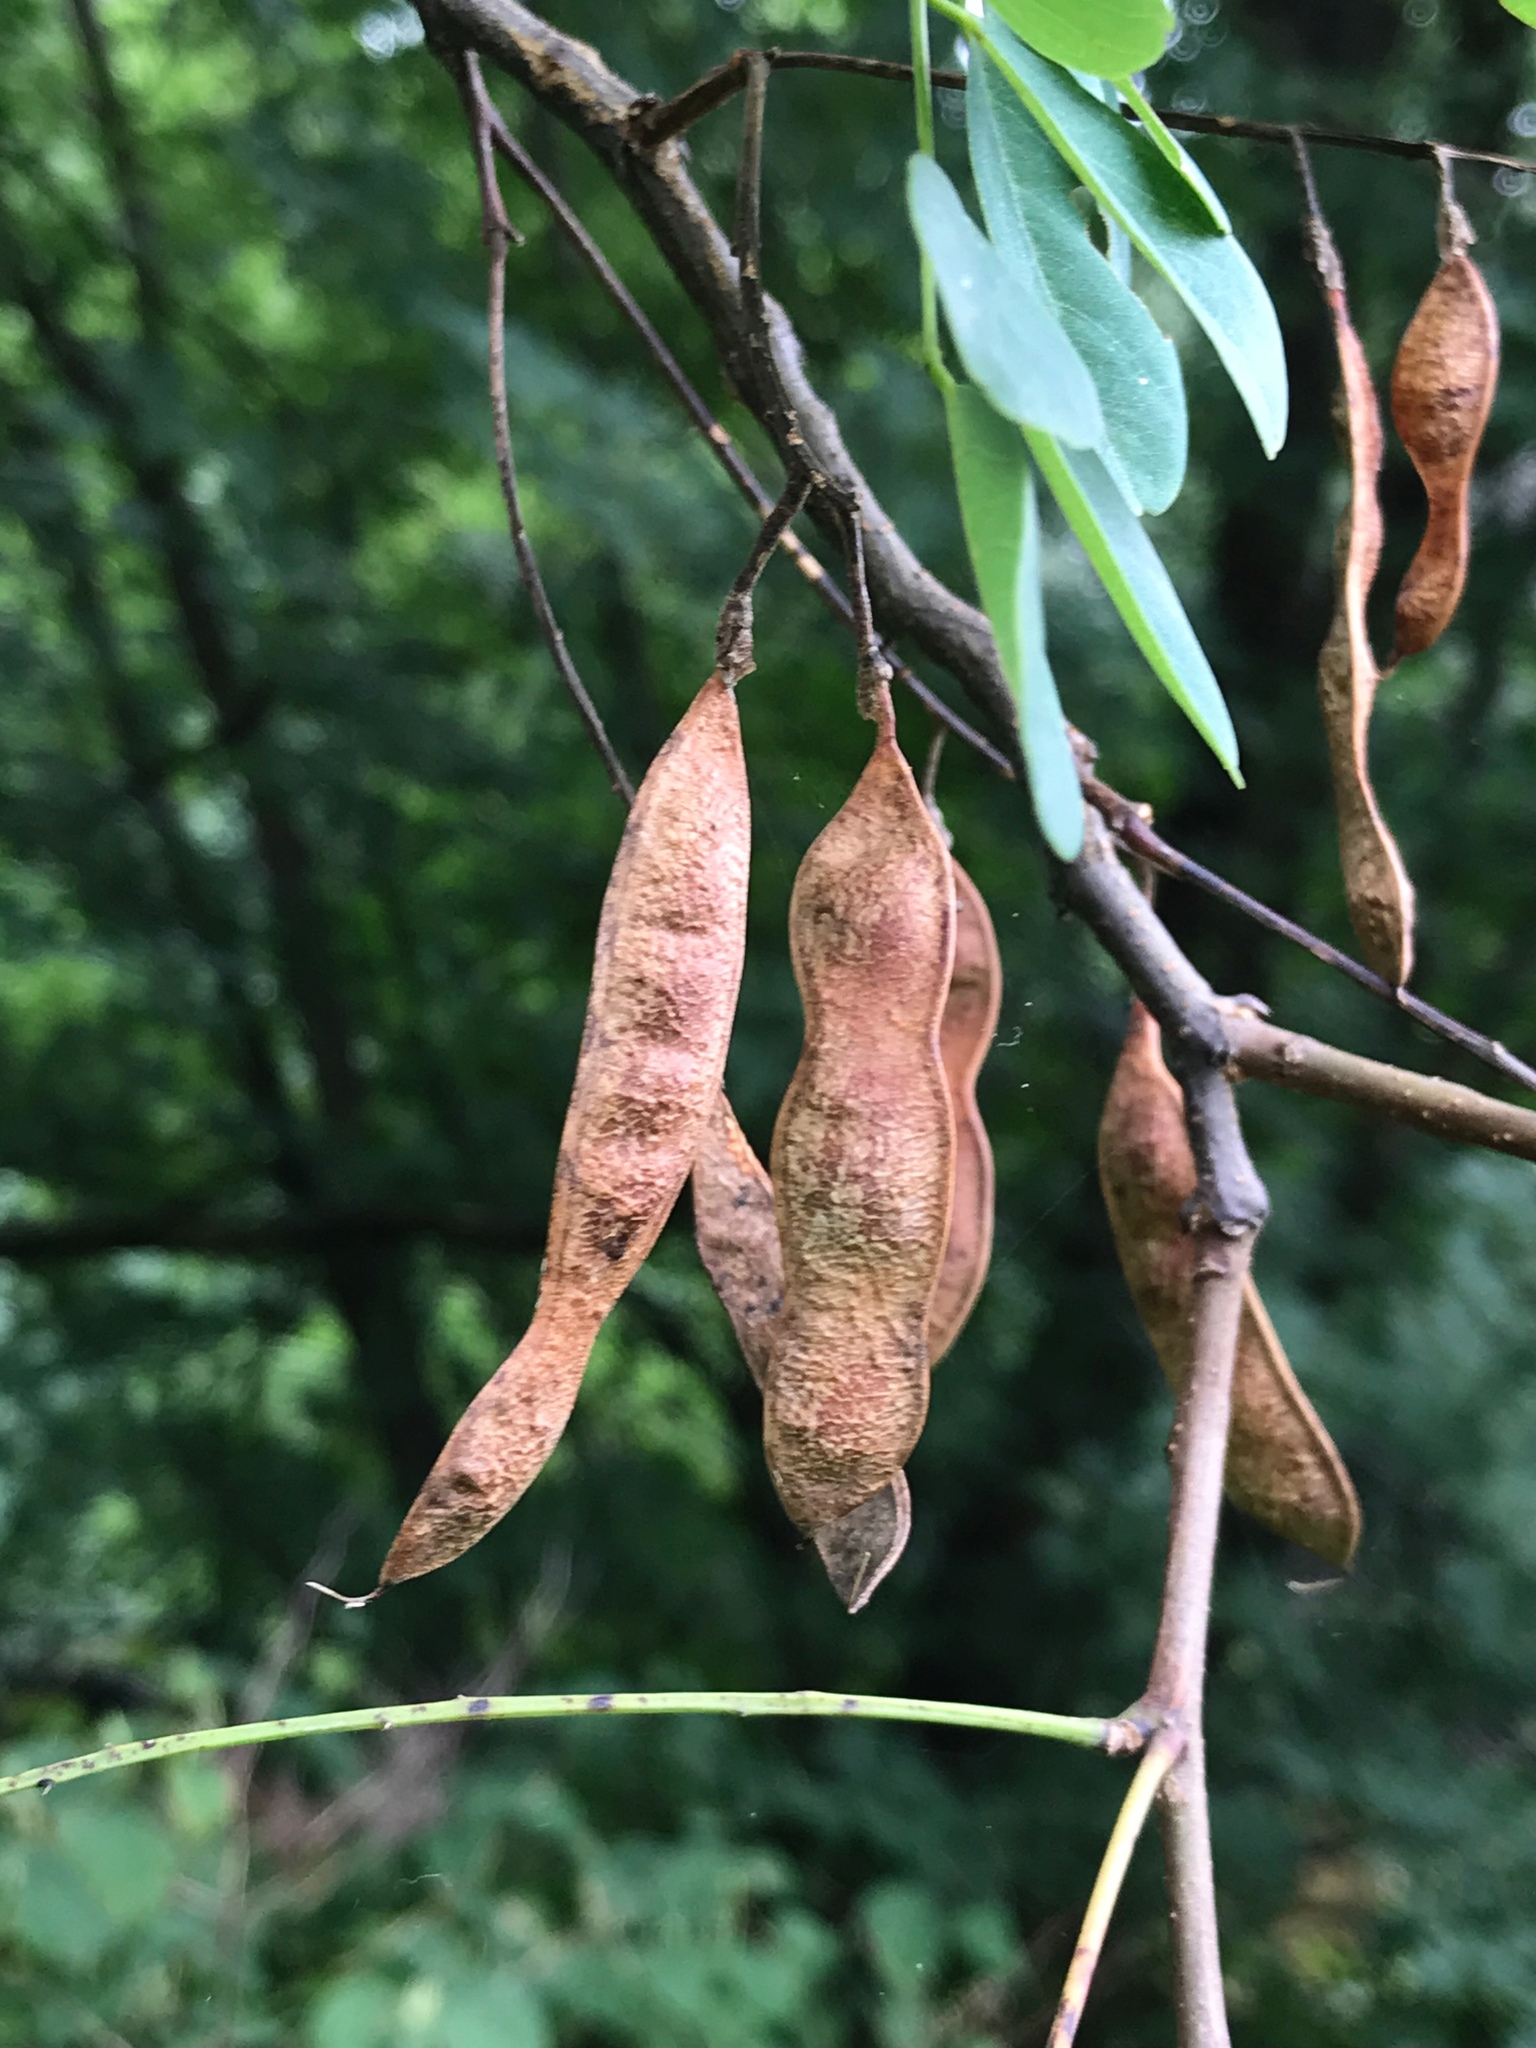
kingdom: Plantae
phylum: Tracheophyta
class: Magnoliopsida
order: Fabales
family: Fabaceae
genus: Robinia
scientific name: Robinia pseudoacacia
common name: Black locust
